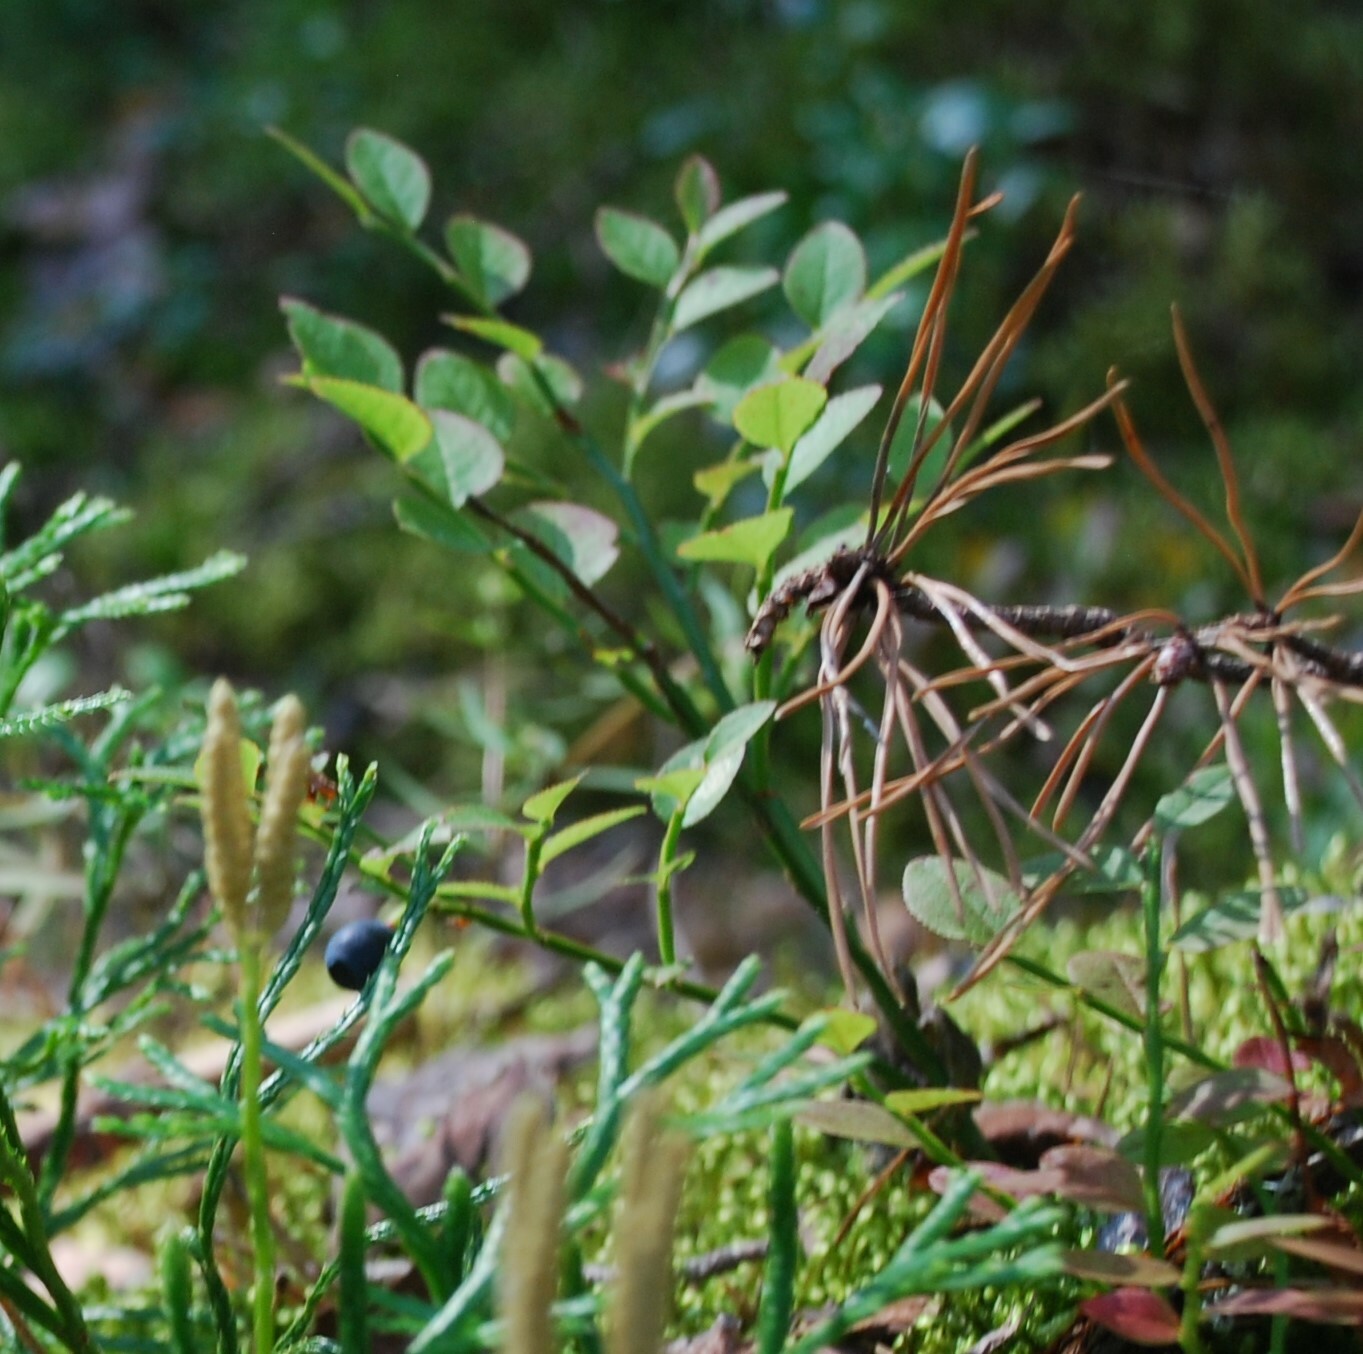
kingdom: Plantae
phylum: Tracheophyta
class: Magnoliopsida
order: Ericales
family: Ericaceae
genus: Vaccinium
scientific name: Vaccinium myrtillus
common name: Bilberry
